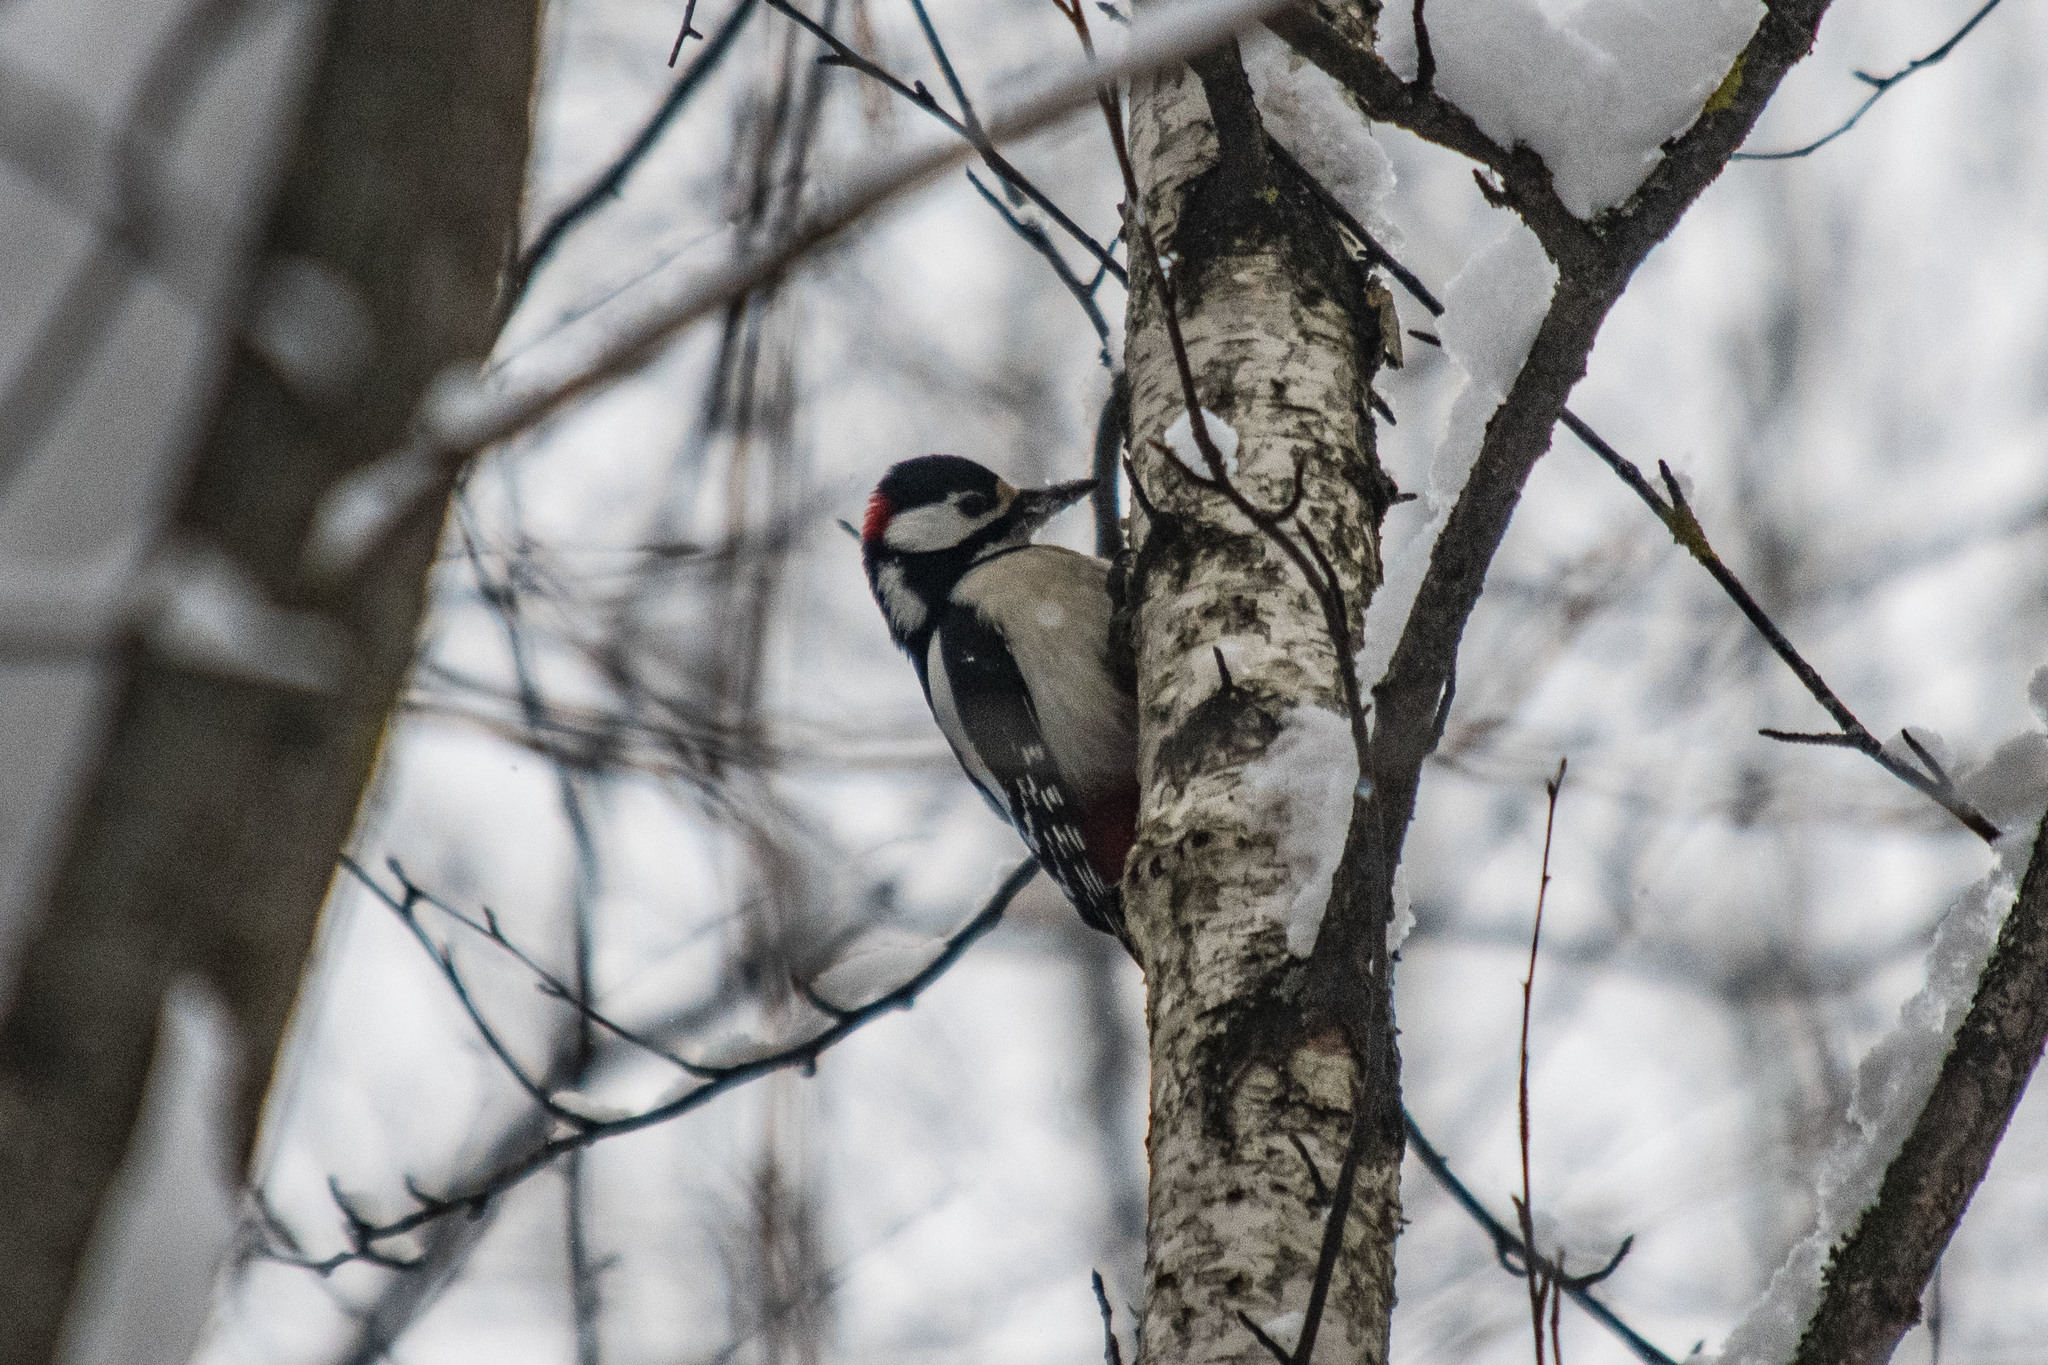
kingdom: Animalia
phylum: Chordata
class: Aves
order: Piciformes
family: Picidae
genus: Dendrocopos
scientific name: Dendrocopos major
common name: Great spotted woodpecker
